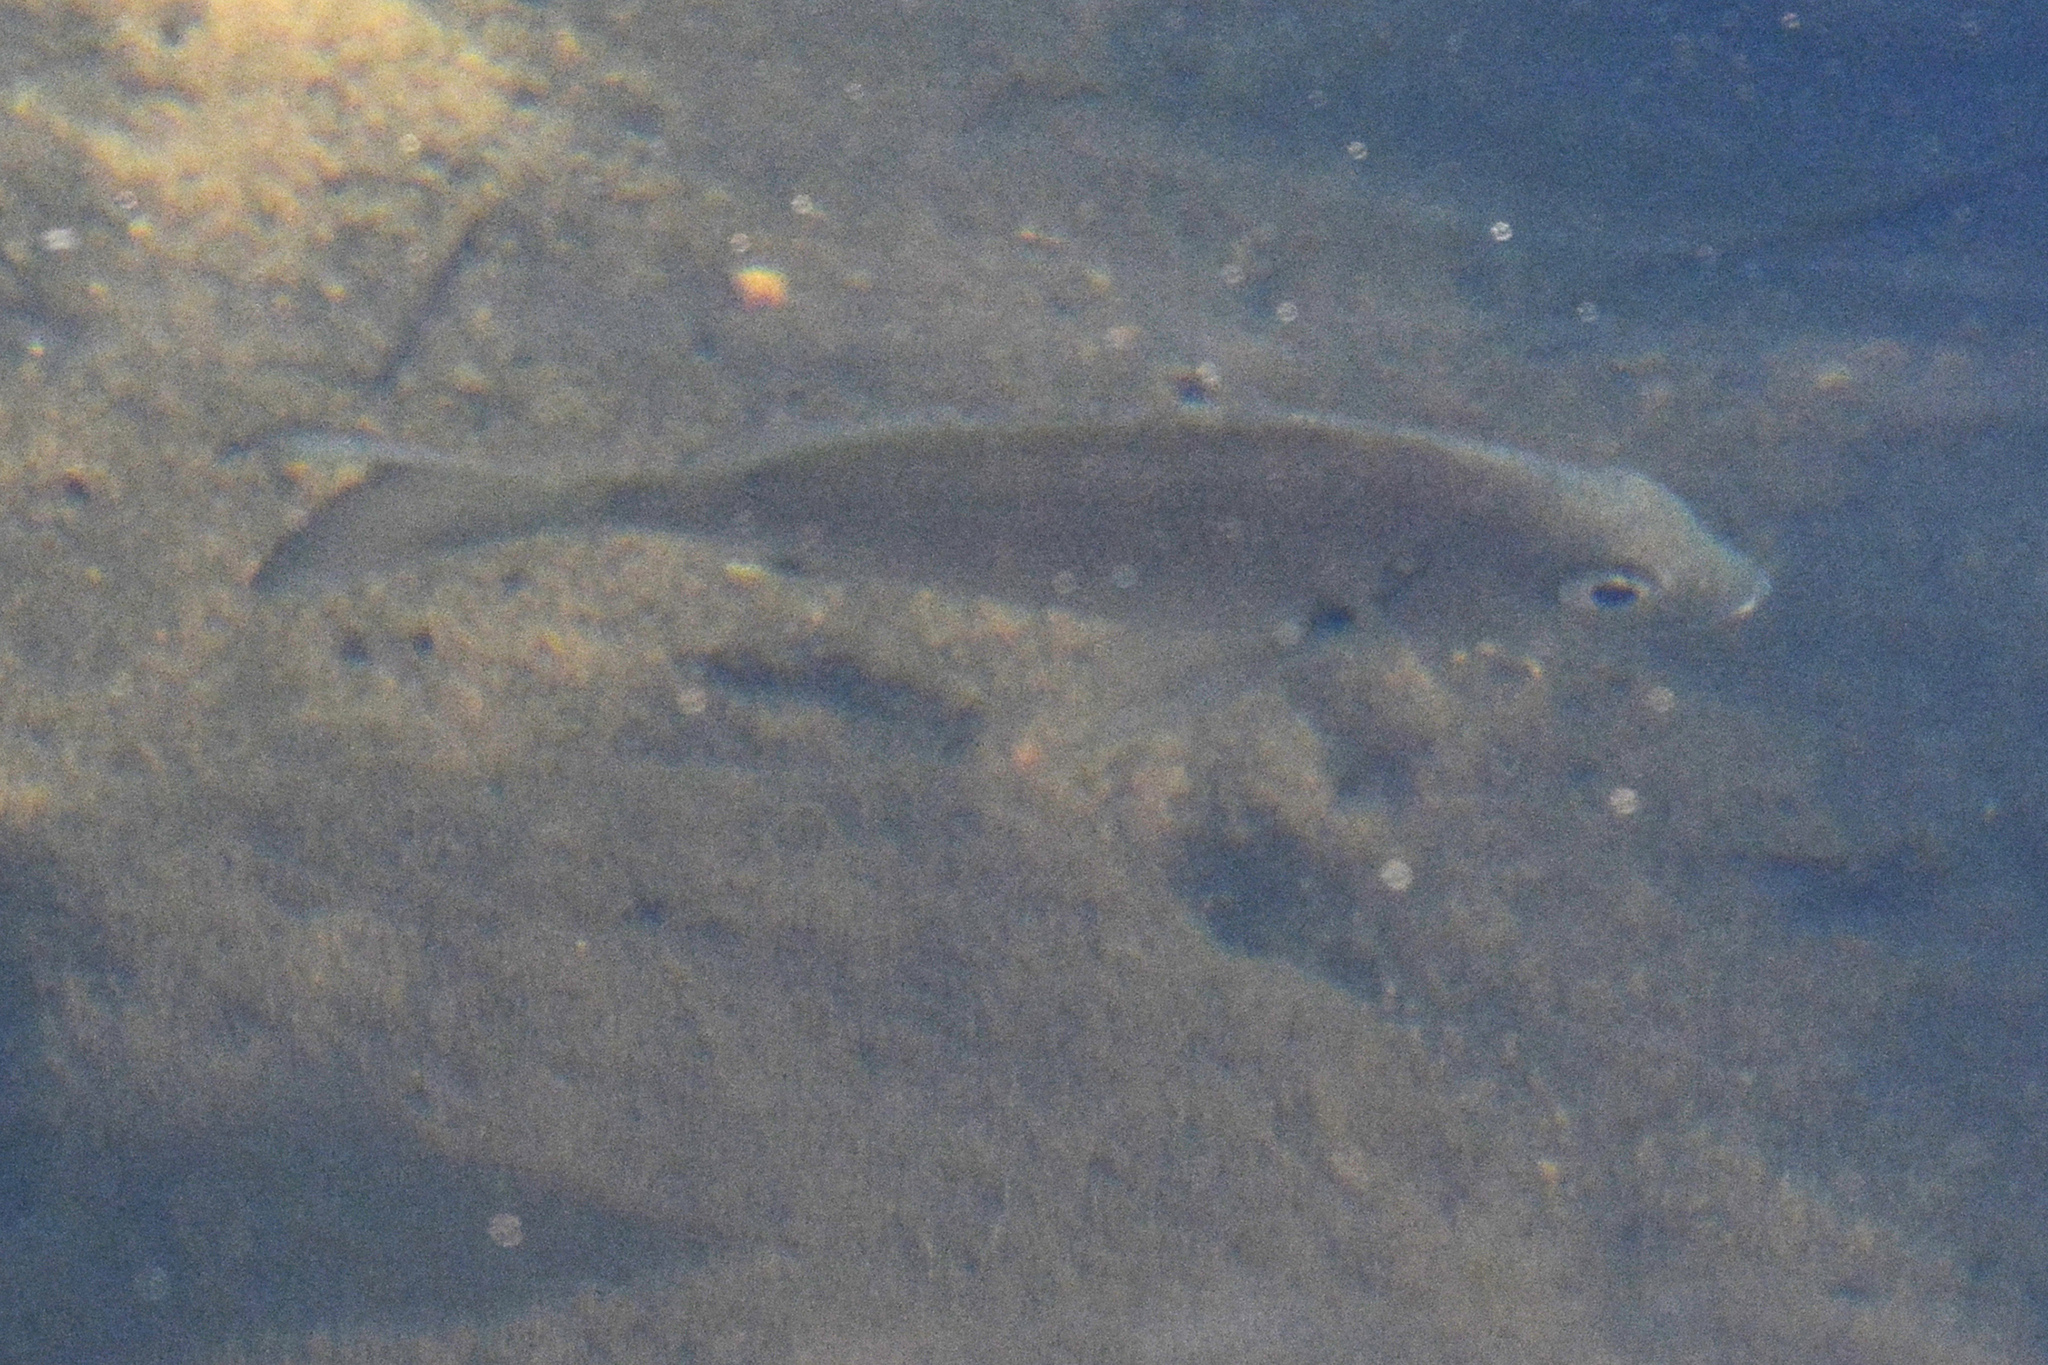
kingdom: Animalia
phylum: Chordata
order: Perciformes
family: Sparidae
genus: Acanthopagrus
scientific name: Acanthopagrus australis
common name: Surf bream
